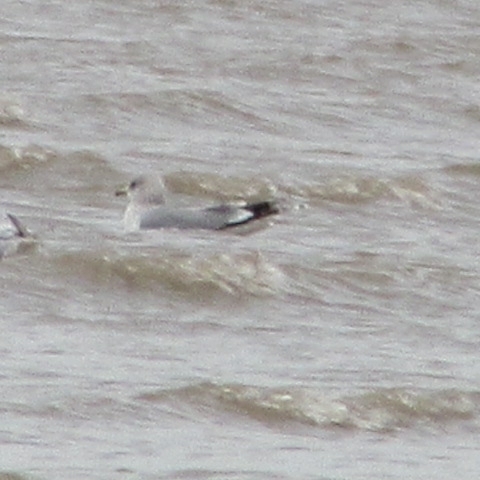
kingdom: Animalia
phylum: Chordata
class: Aves
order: Charadriiformes
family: Laridae
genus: Larus
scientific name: Larus canus
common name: Mew gull
